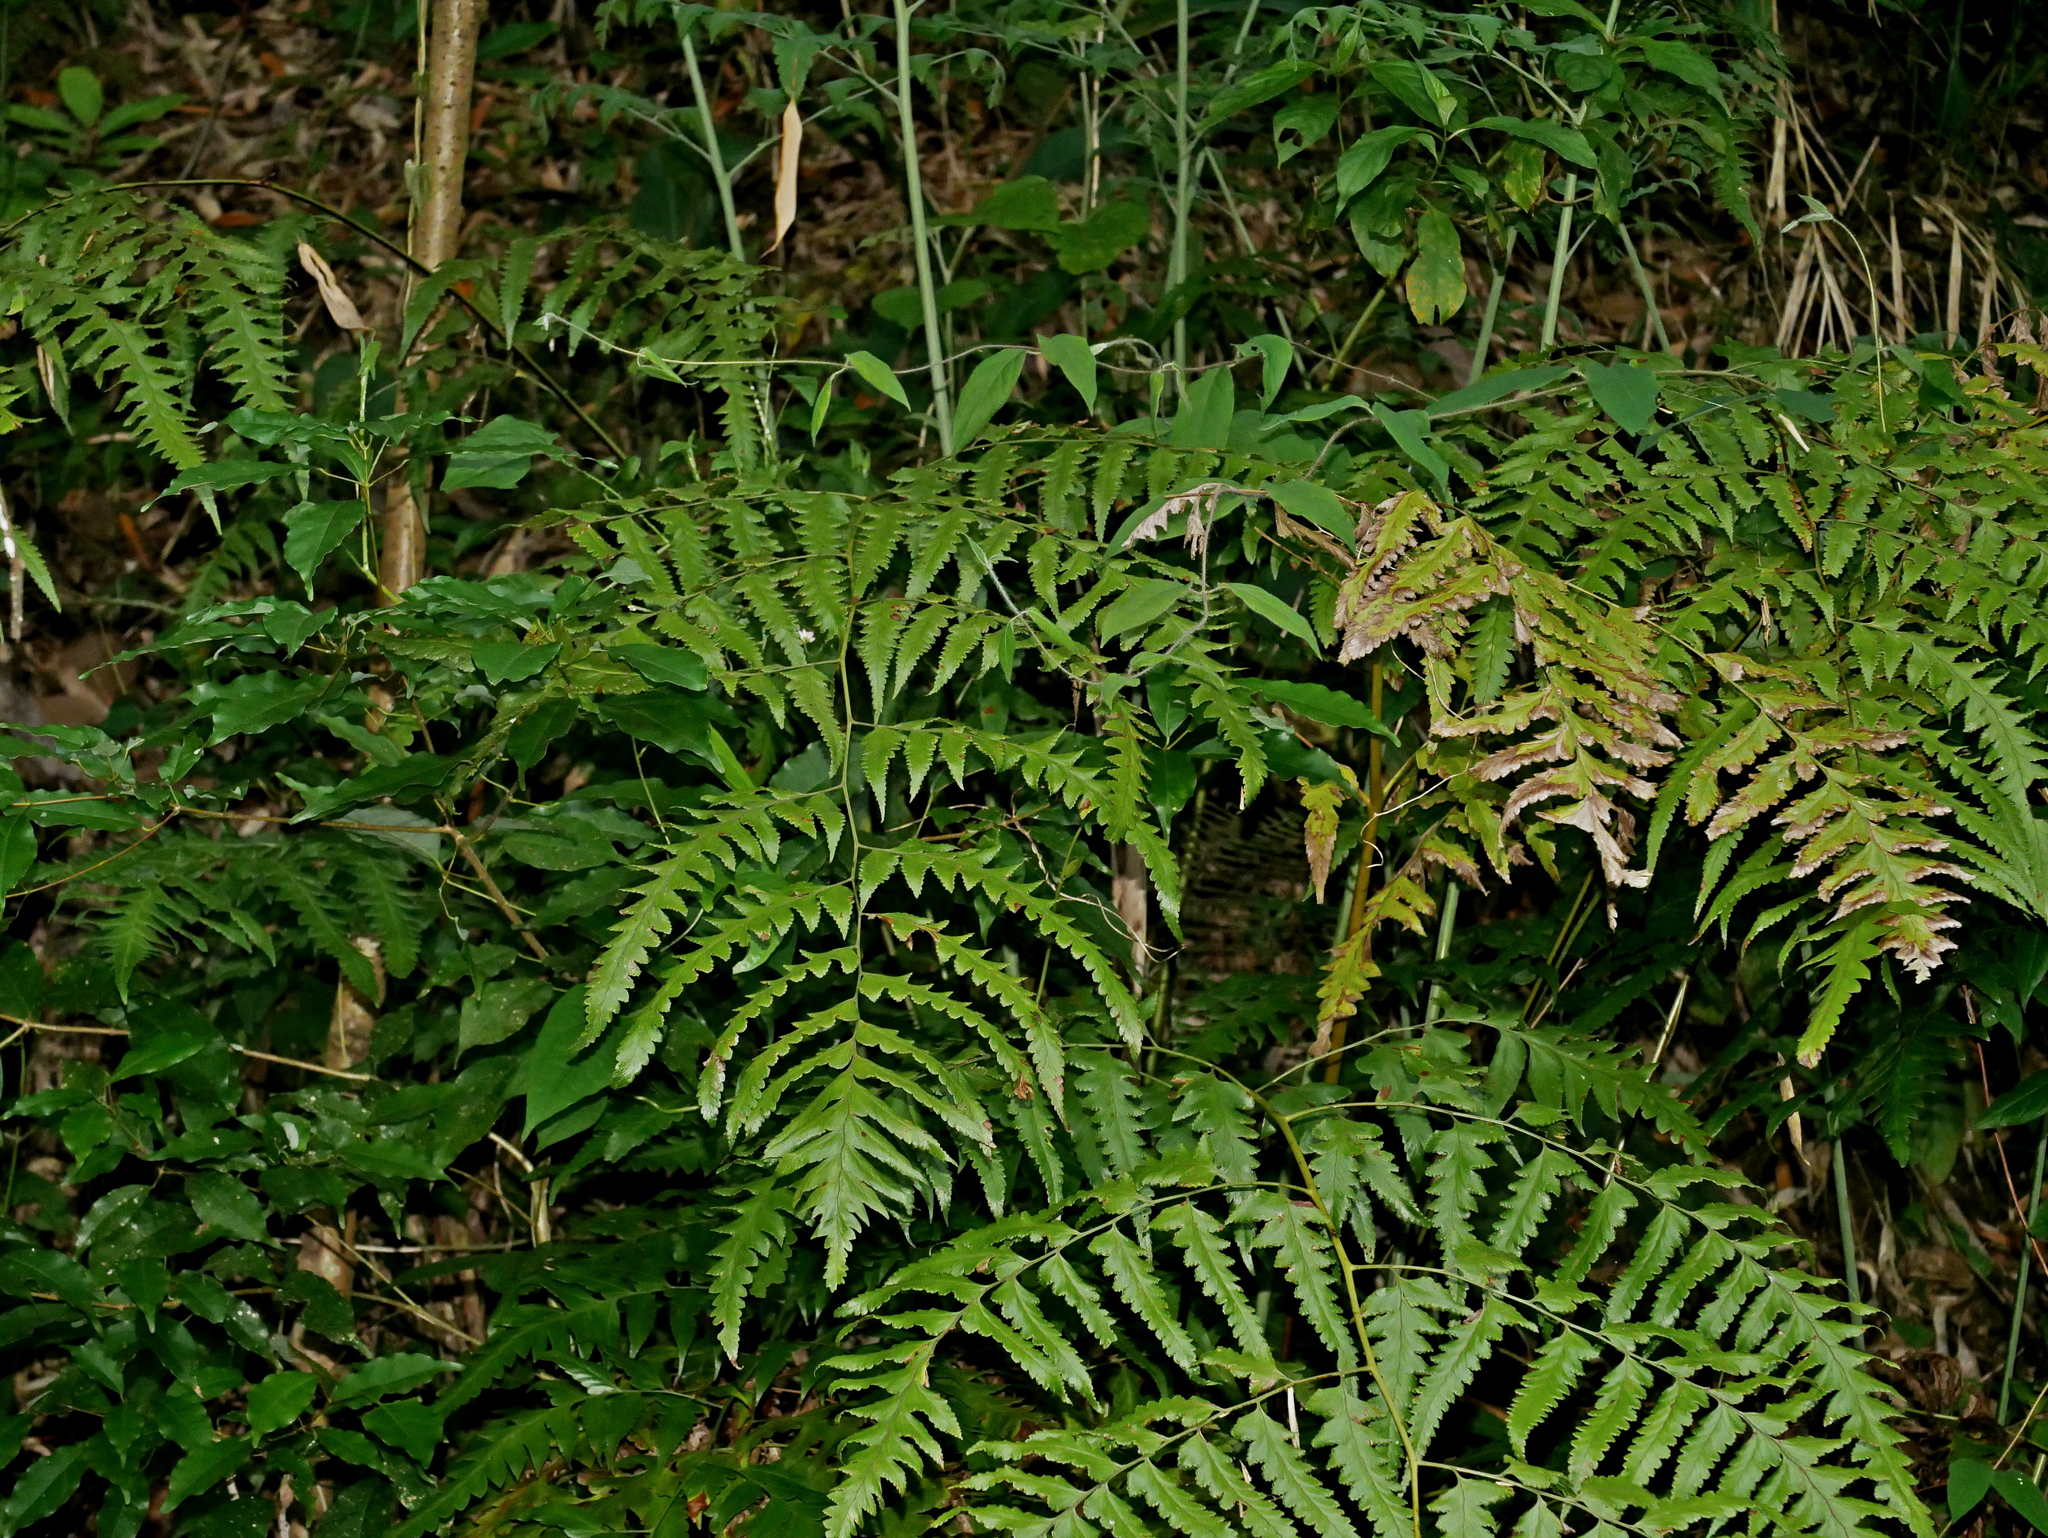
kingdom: Plantae
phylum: Tracheophyta
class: Polypodiopsida
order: Polypodiales
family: Dennstaedtiaceae
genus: Microlepia
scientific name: Microlepia platyphylla
